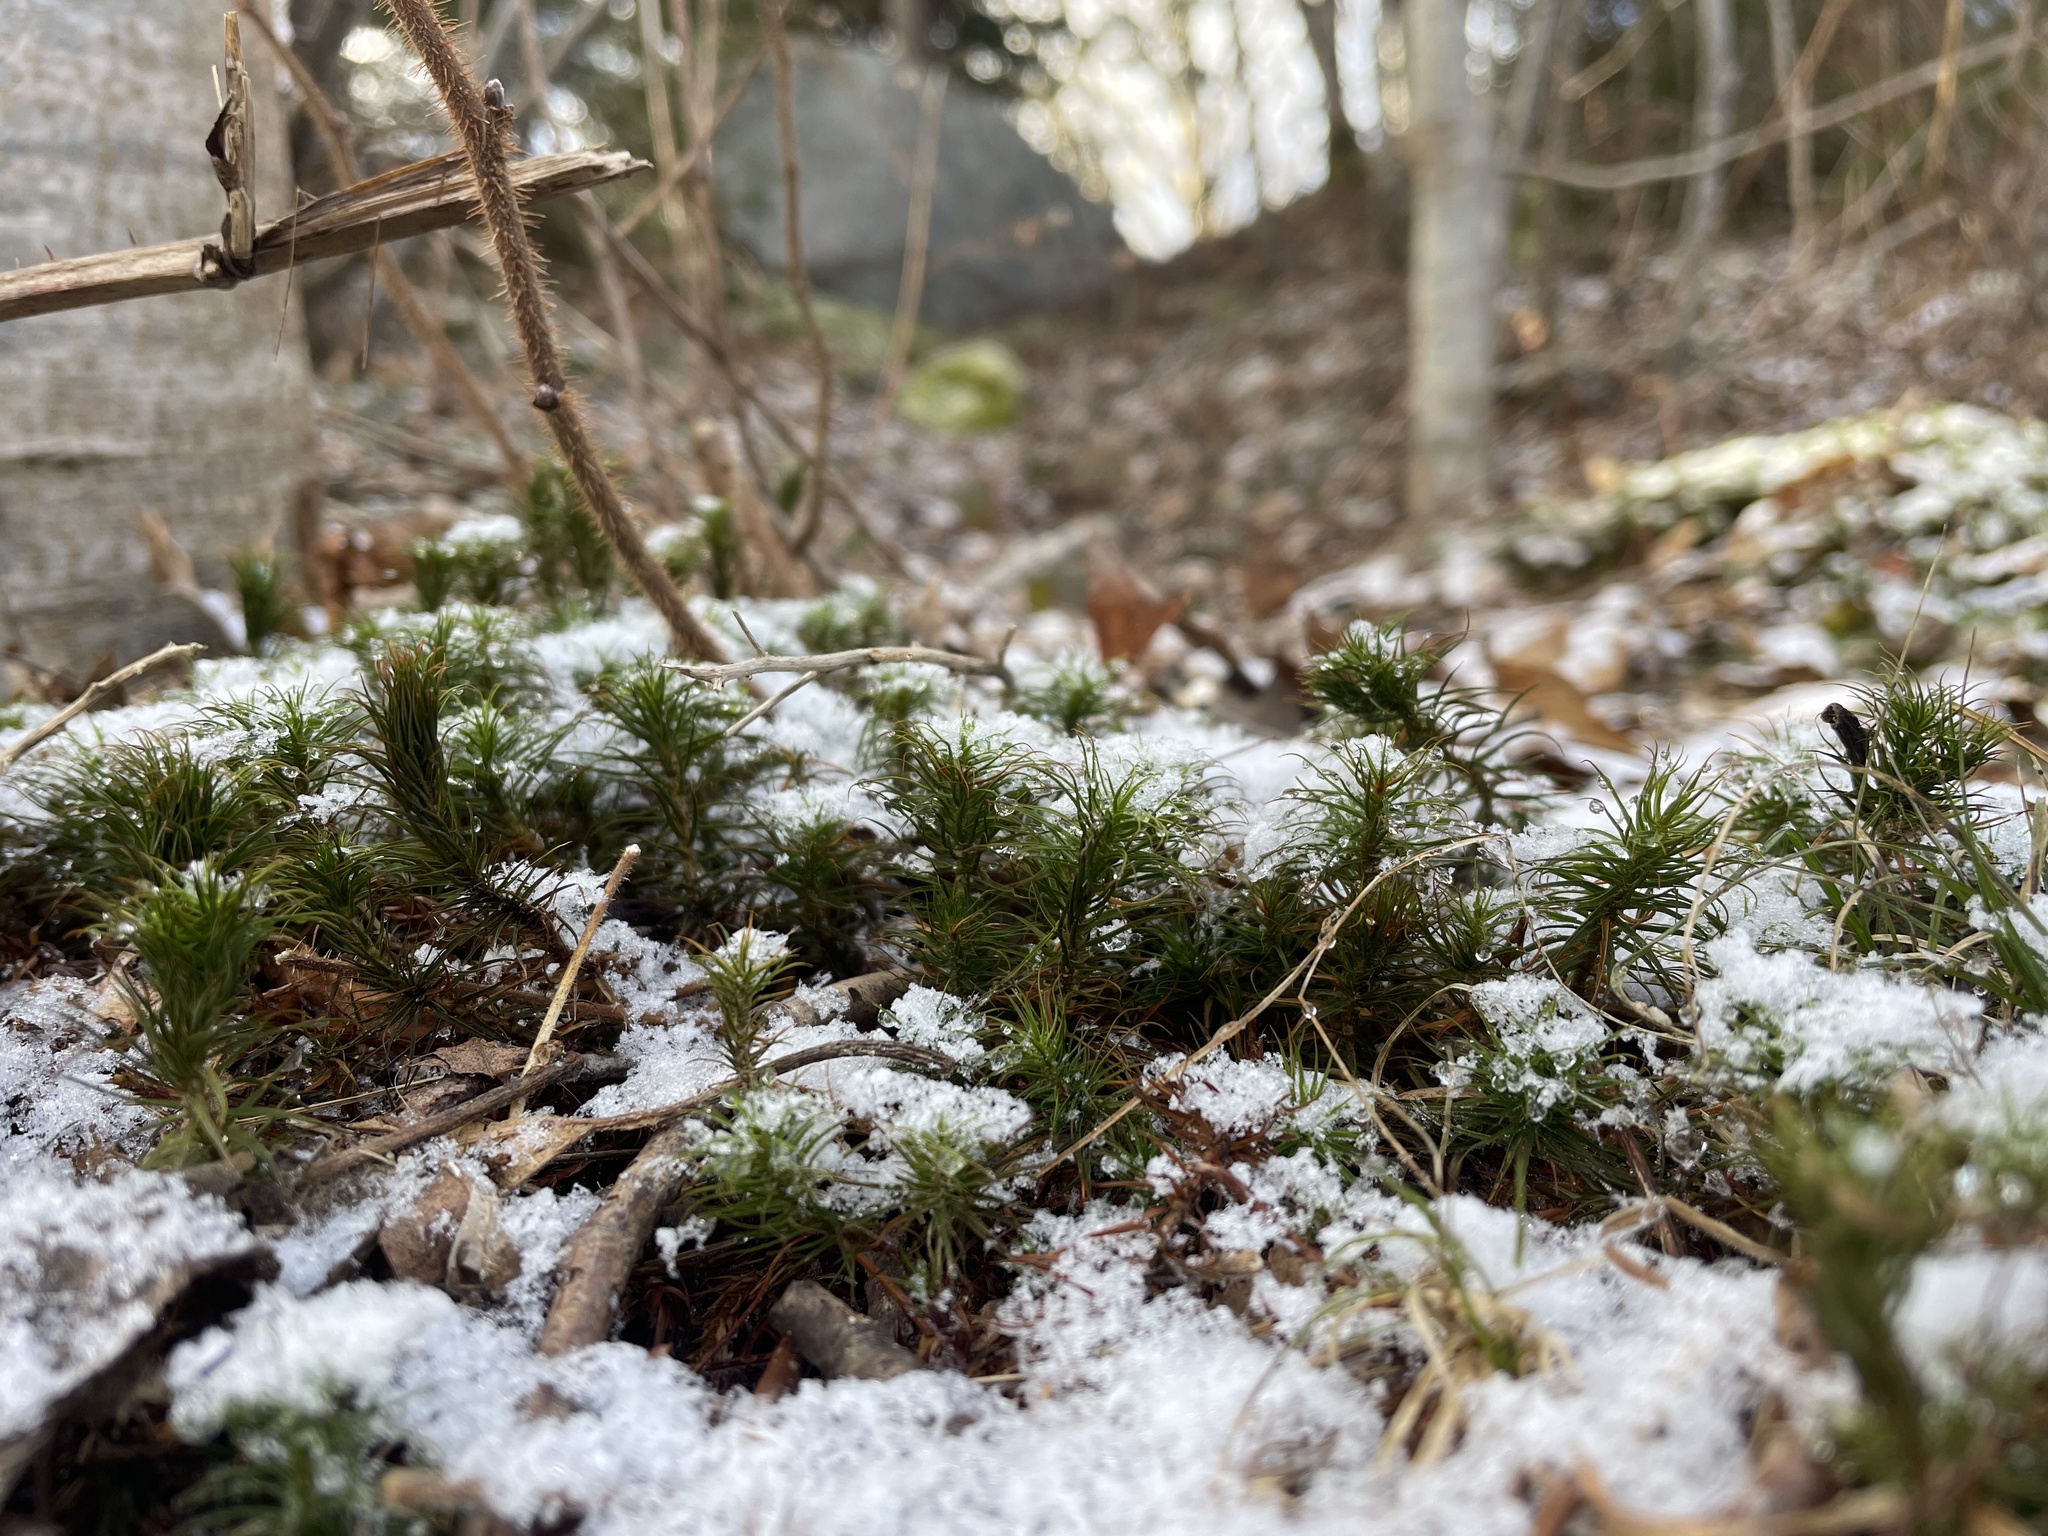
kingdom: Plantae
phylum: Bryophyta
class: Polytrichopsida
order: Polytrichales
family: Polytrichaceae
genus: Polytrichum
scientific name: Polytrichum commune
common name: Common haircap
